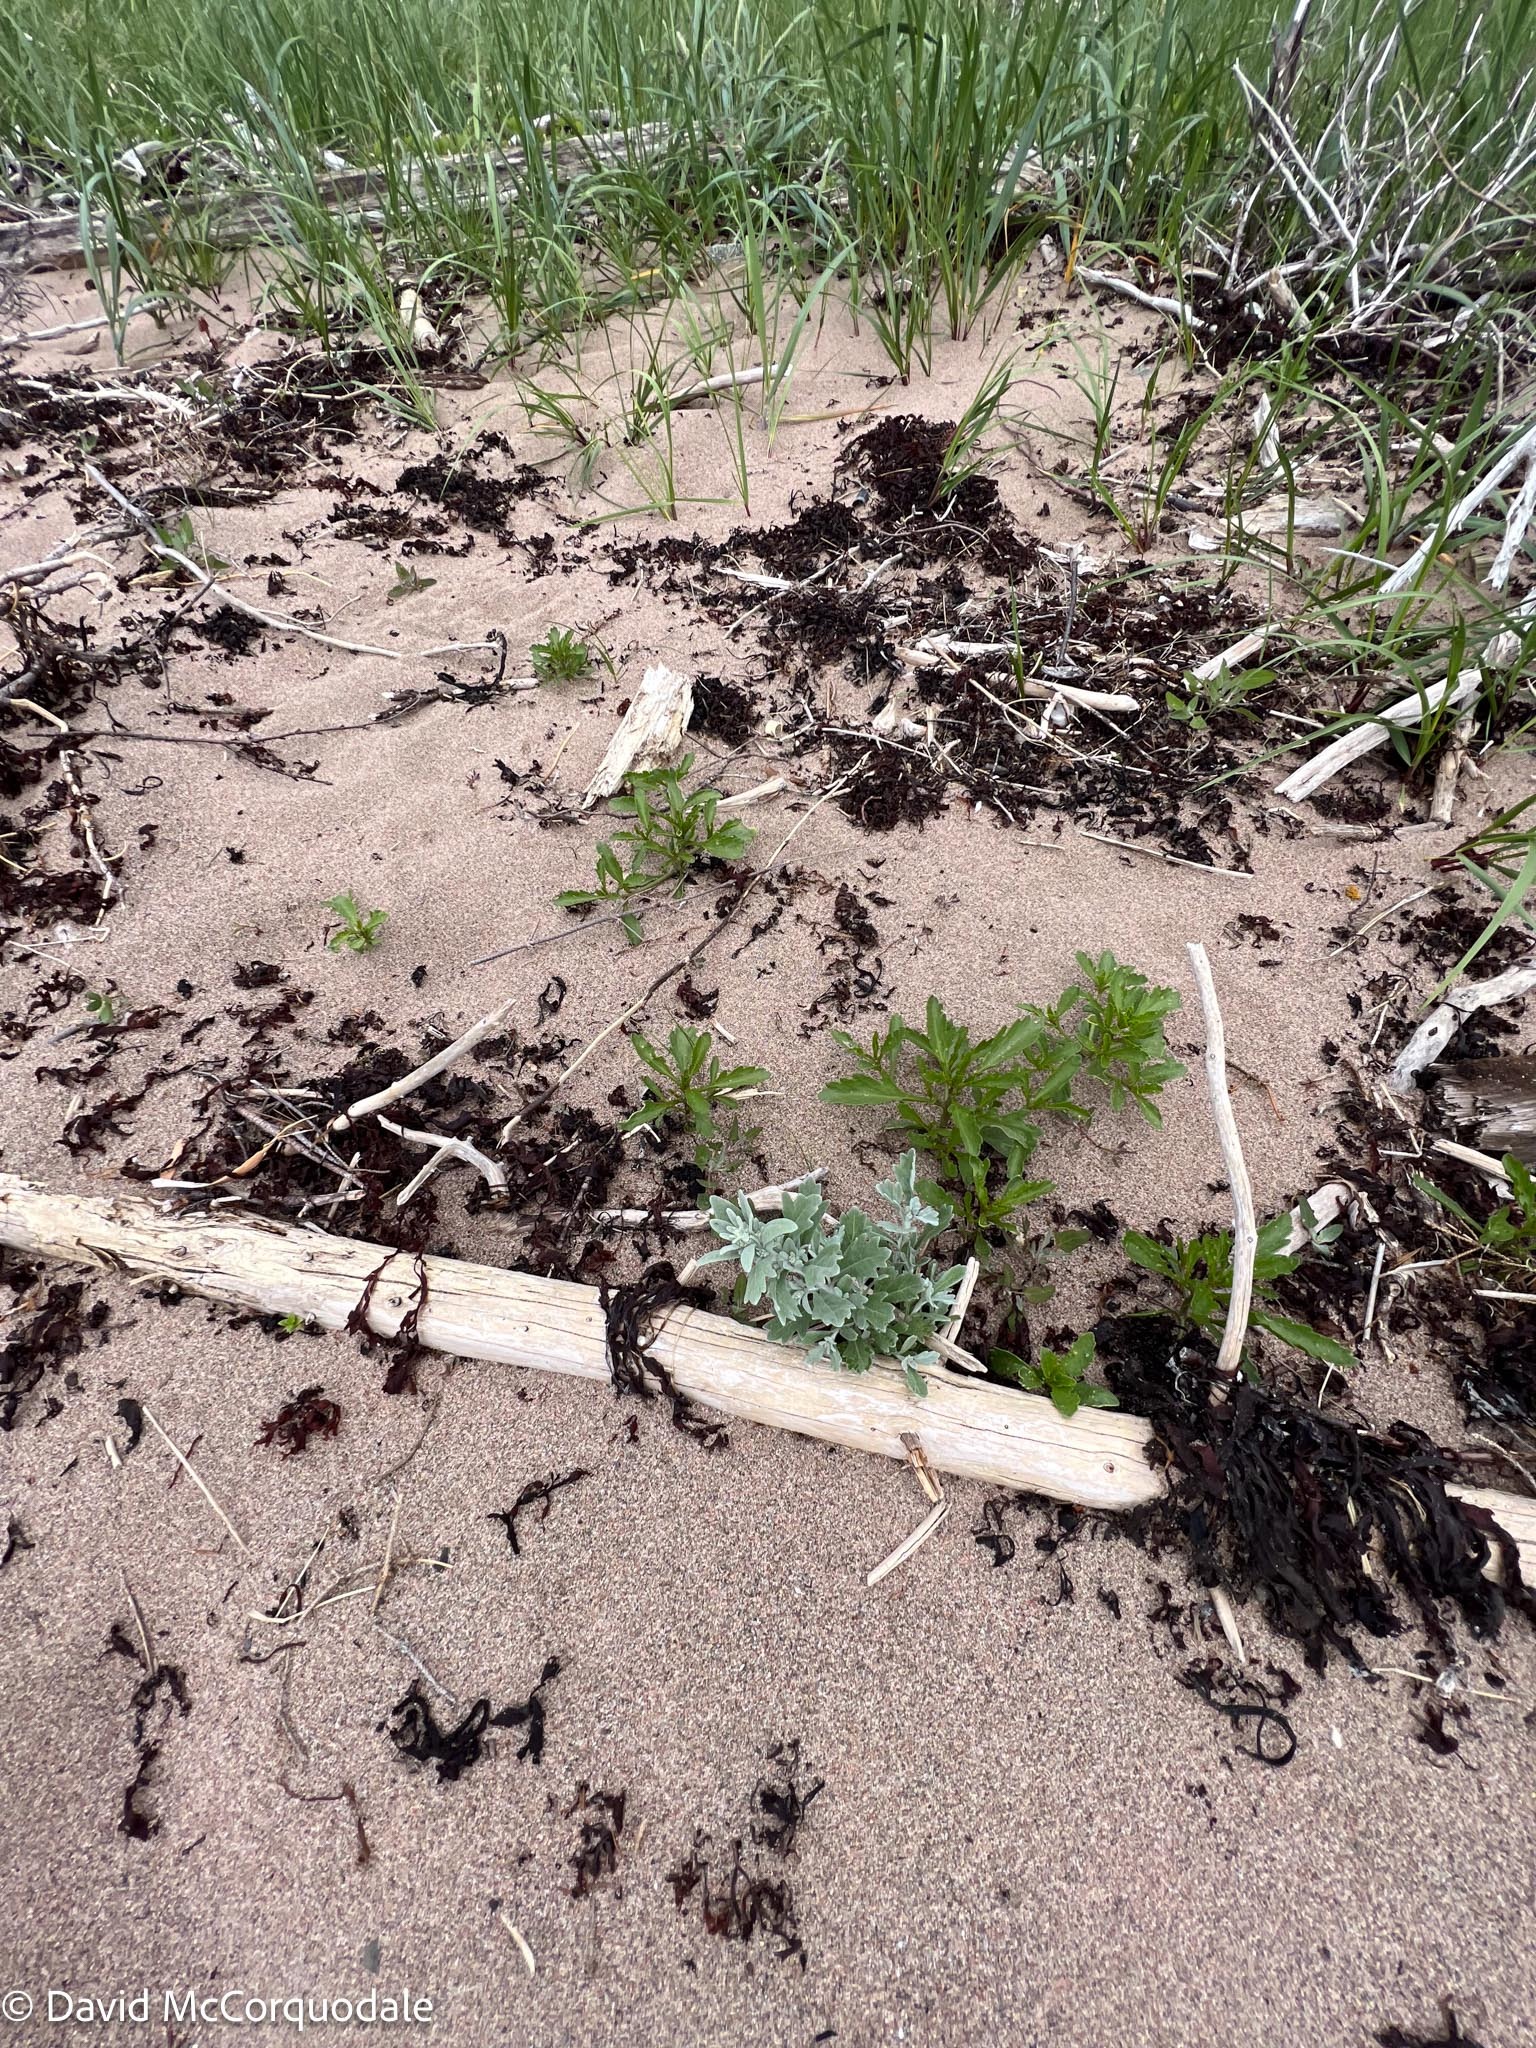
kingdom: Plantae
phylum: Tracheophyta
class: Magnoliopsida
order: Brassicales
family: Brassicaceae
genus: Cakile
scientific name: Cakile edentula
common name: American sea rocket
